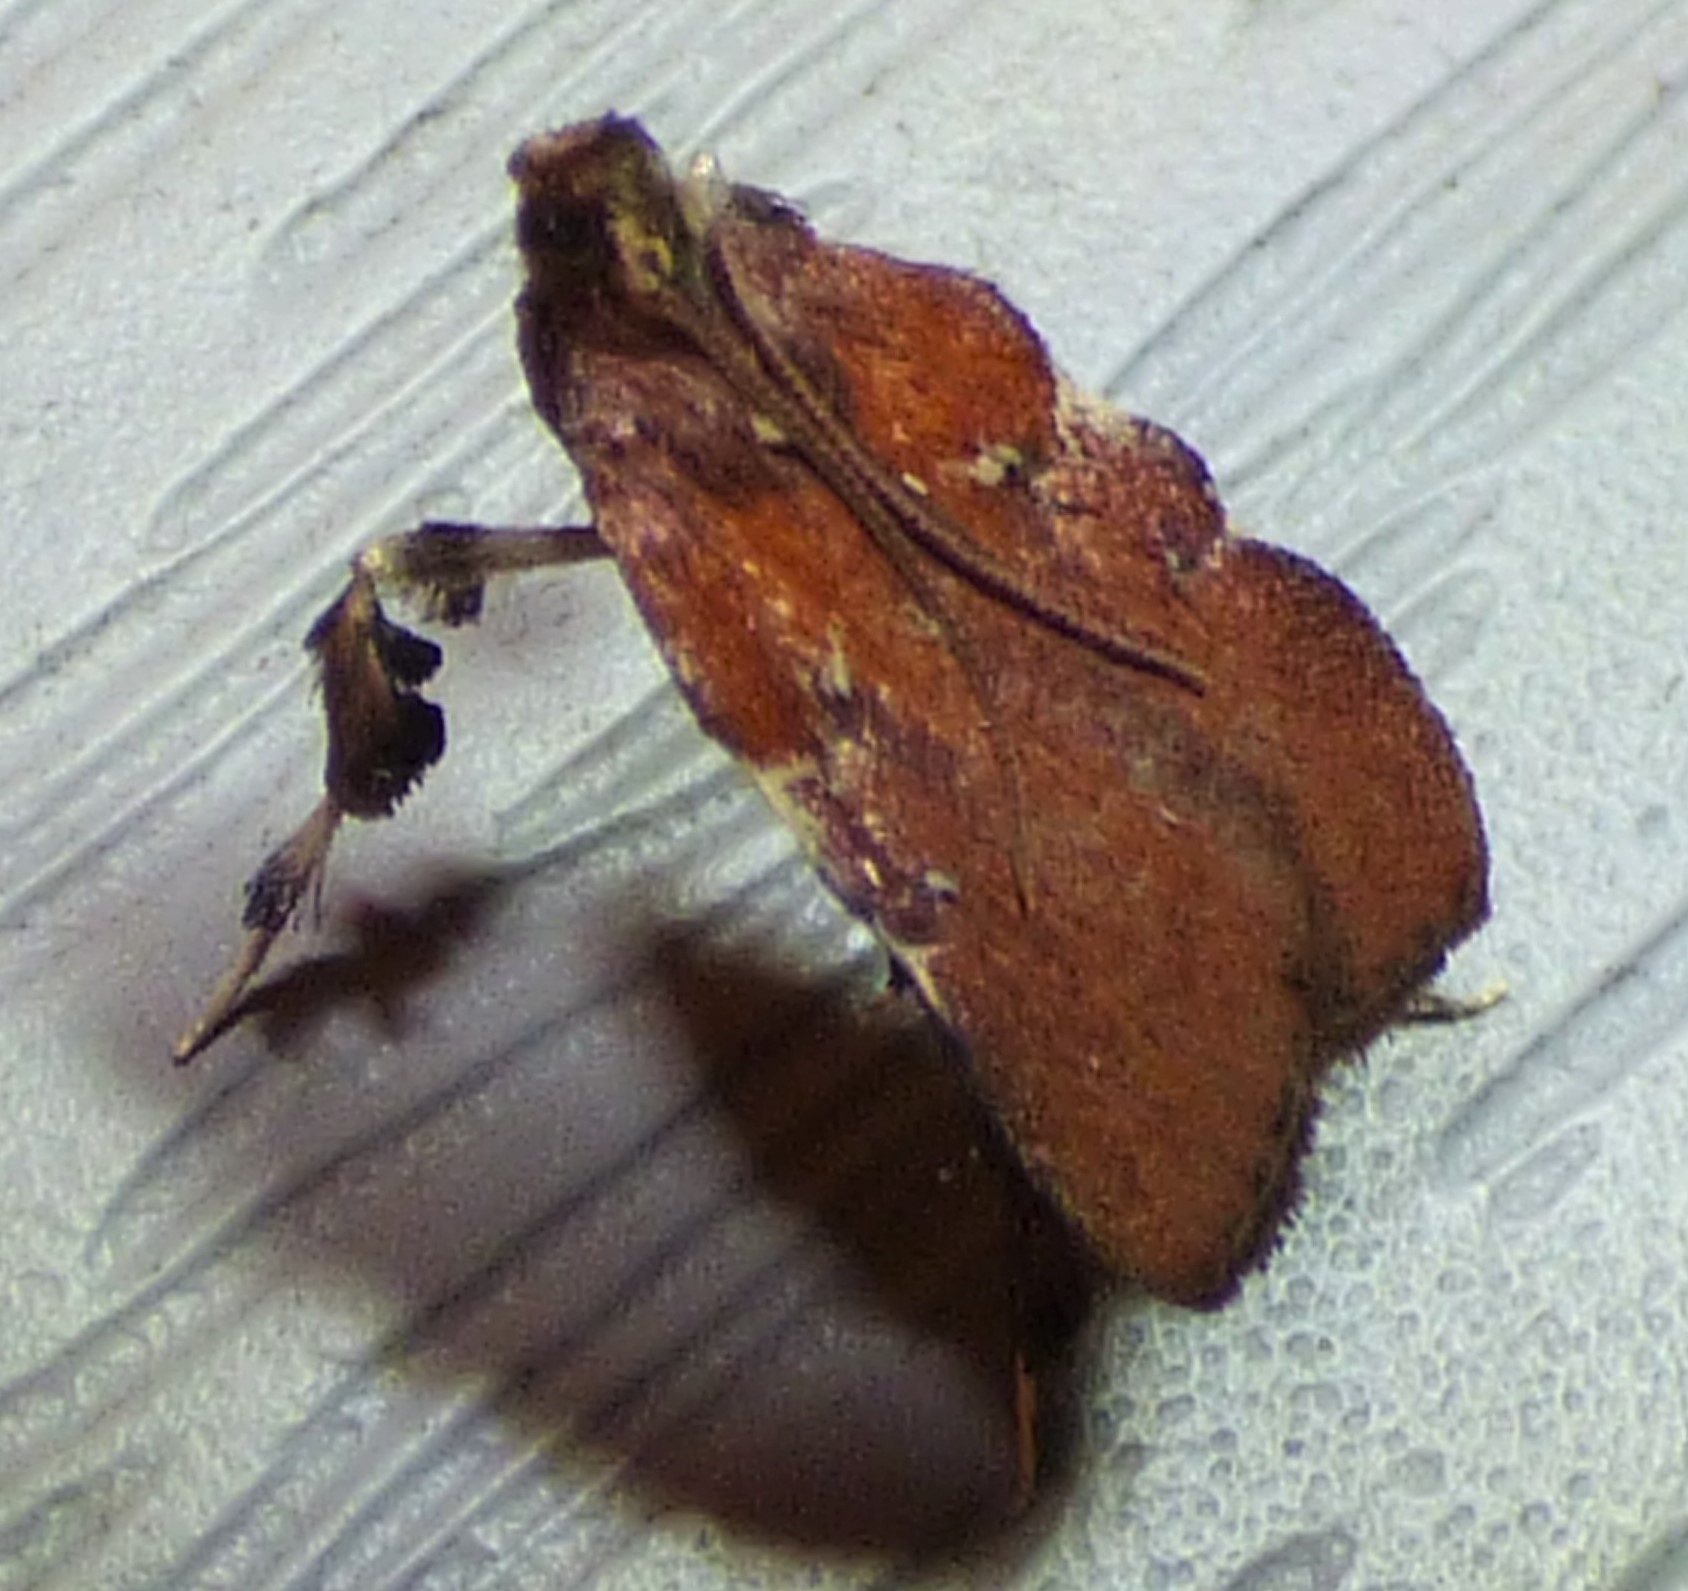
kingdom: Animalia
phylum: Arthropoda
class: Insecta
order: Lepidoptera
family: Pyralidae
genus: Galasa
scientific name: Galasa nigrinodis
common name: Boxwood leaftier moth
